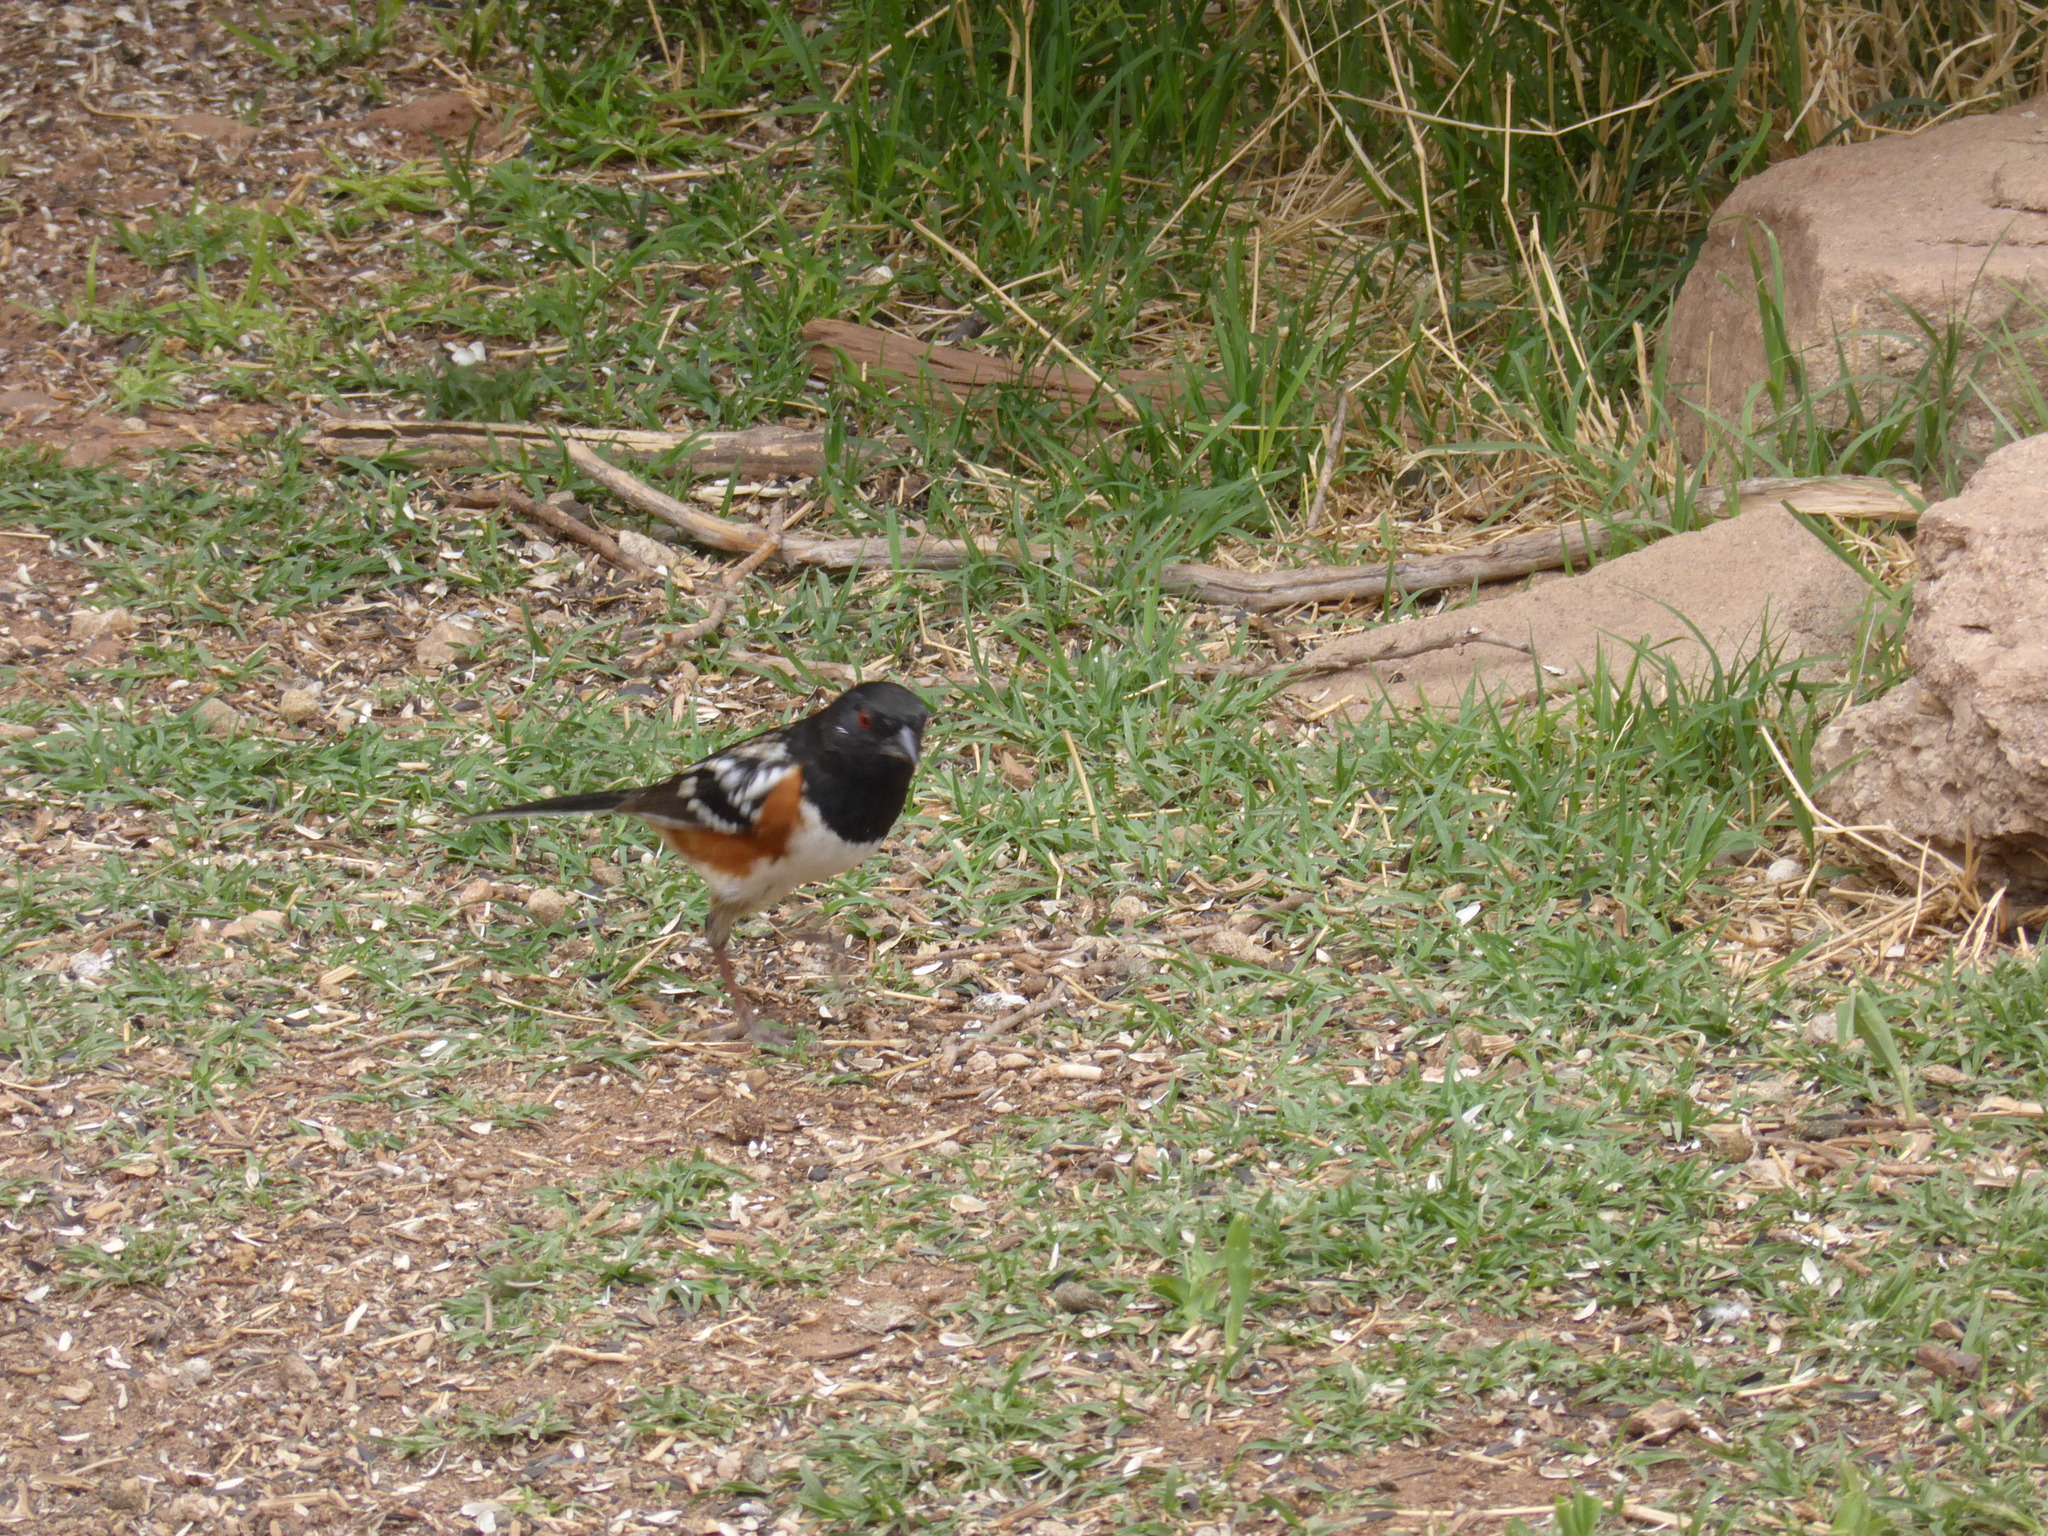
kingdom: Animalia
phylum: Chordata
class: Aves
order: Passeriformes
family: Passerellidae
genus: Pipilo
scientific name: Pipilo maculatus
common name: Spotted towhee
